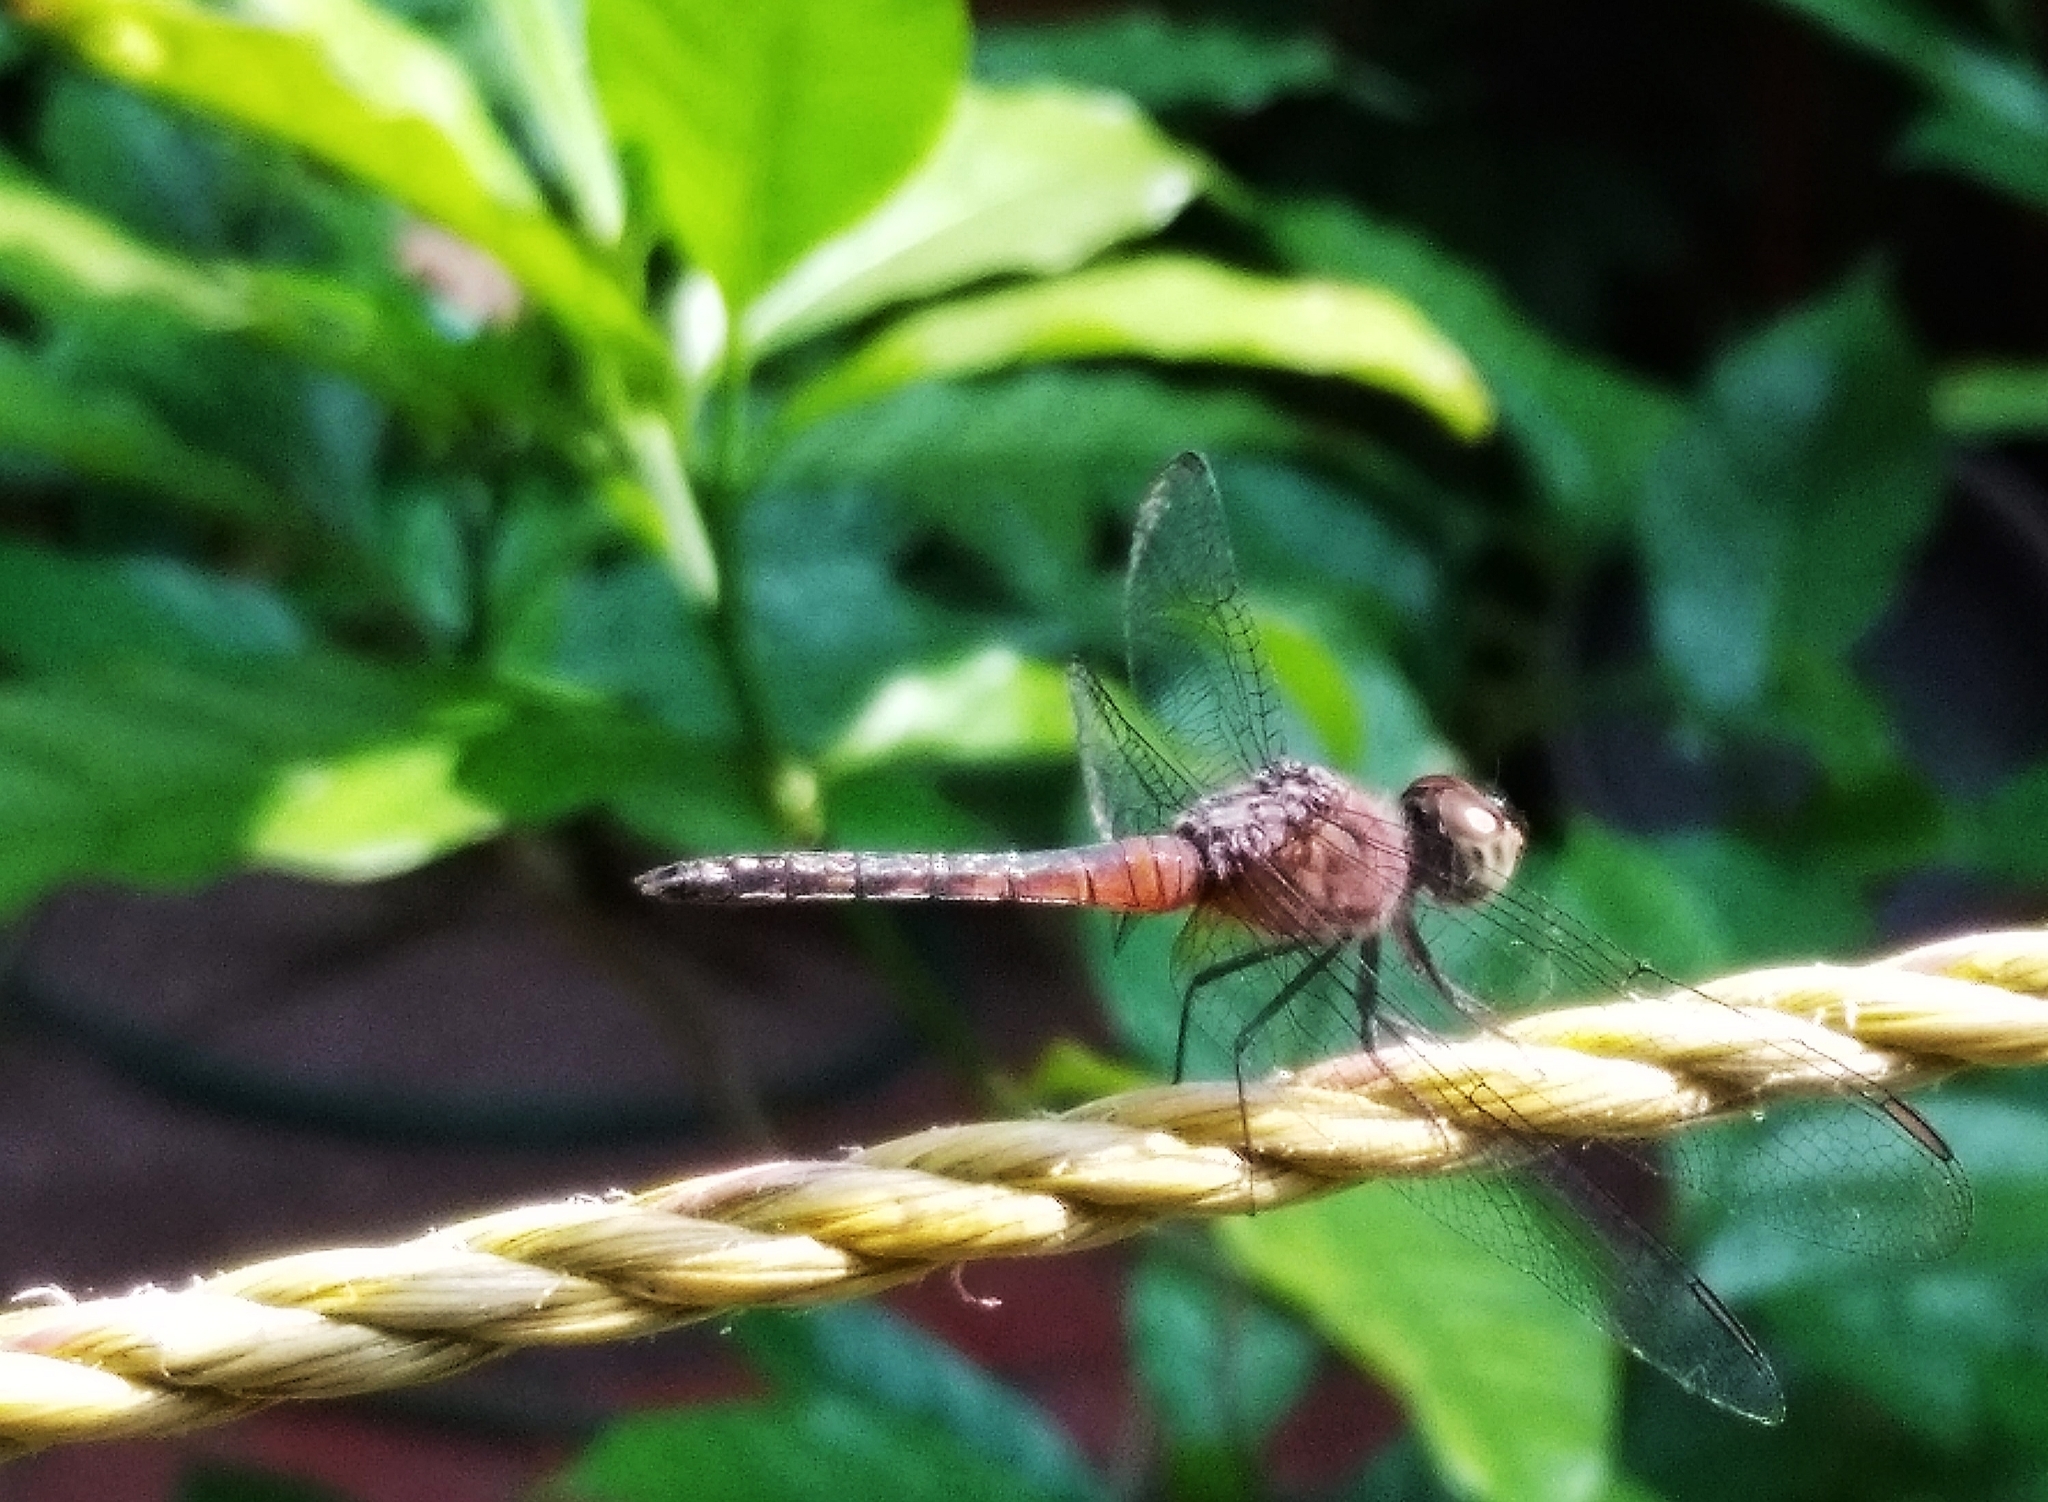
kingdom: Animalia
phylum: Arthropoda
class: Insecta
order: Odonata
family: Libellulidae
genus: Brachydiplax
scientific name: Brachydiplax chalybea
